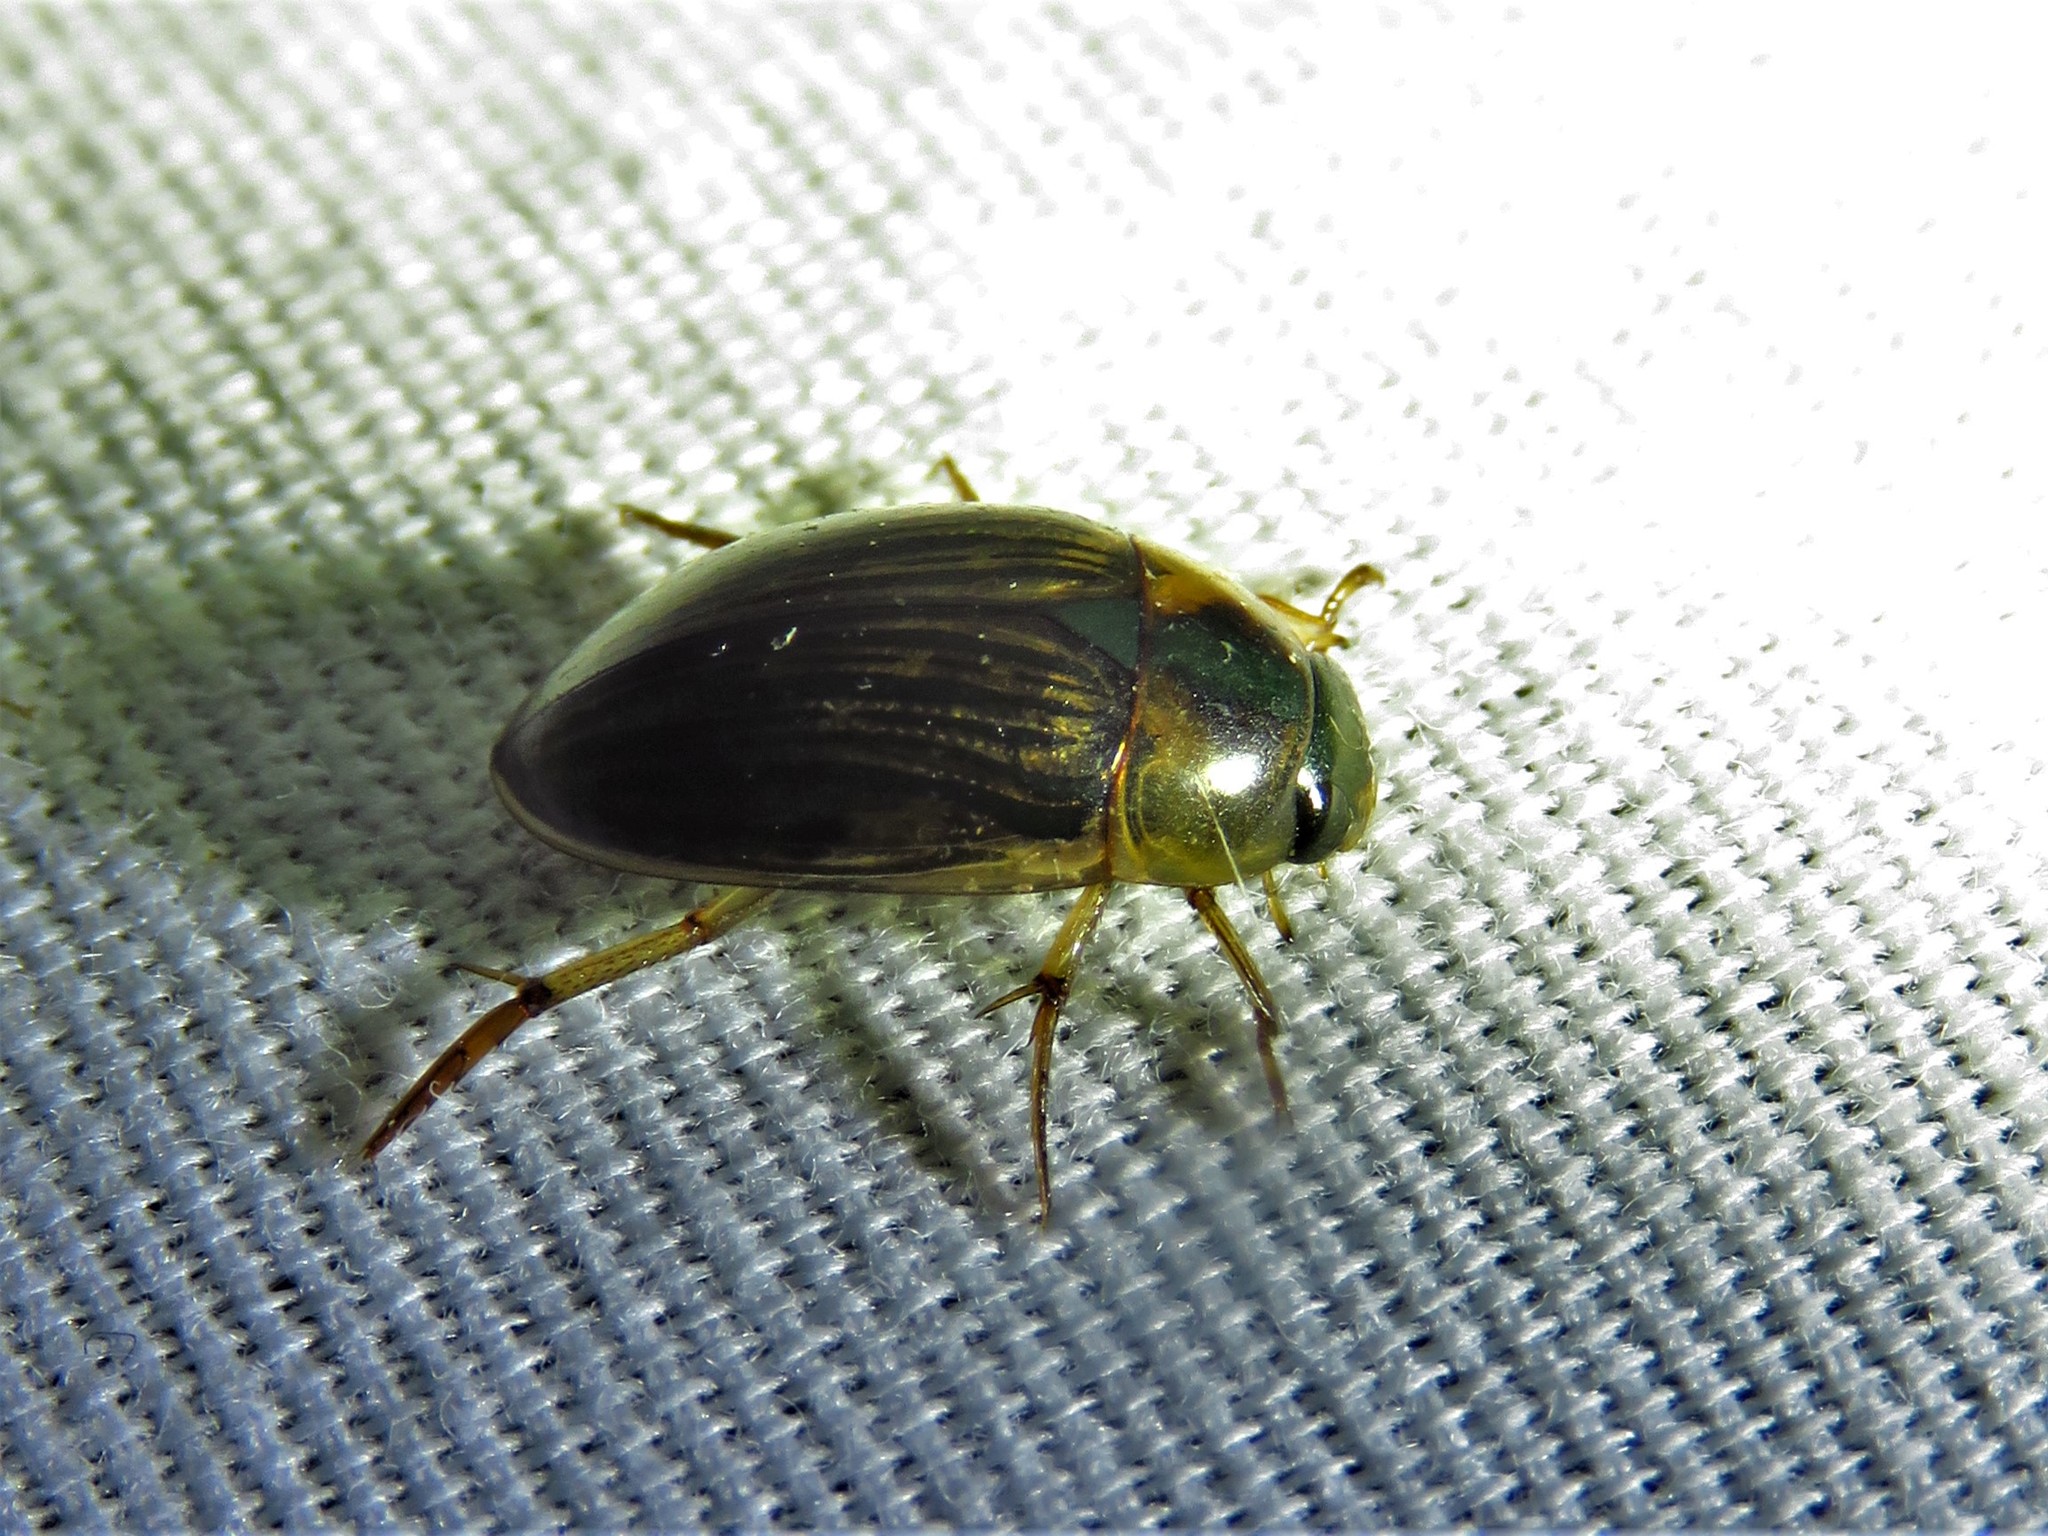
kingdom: Animalia
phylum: Arthropoda
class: Insecta
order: Coleoptera
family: Hydrophilidae
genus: Tropisternus
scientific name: Tropisternus collaris
